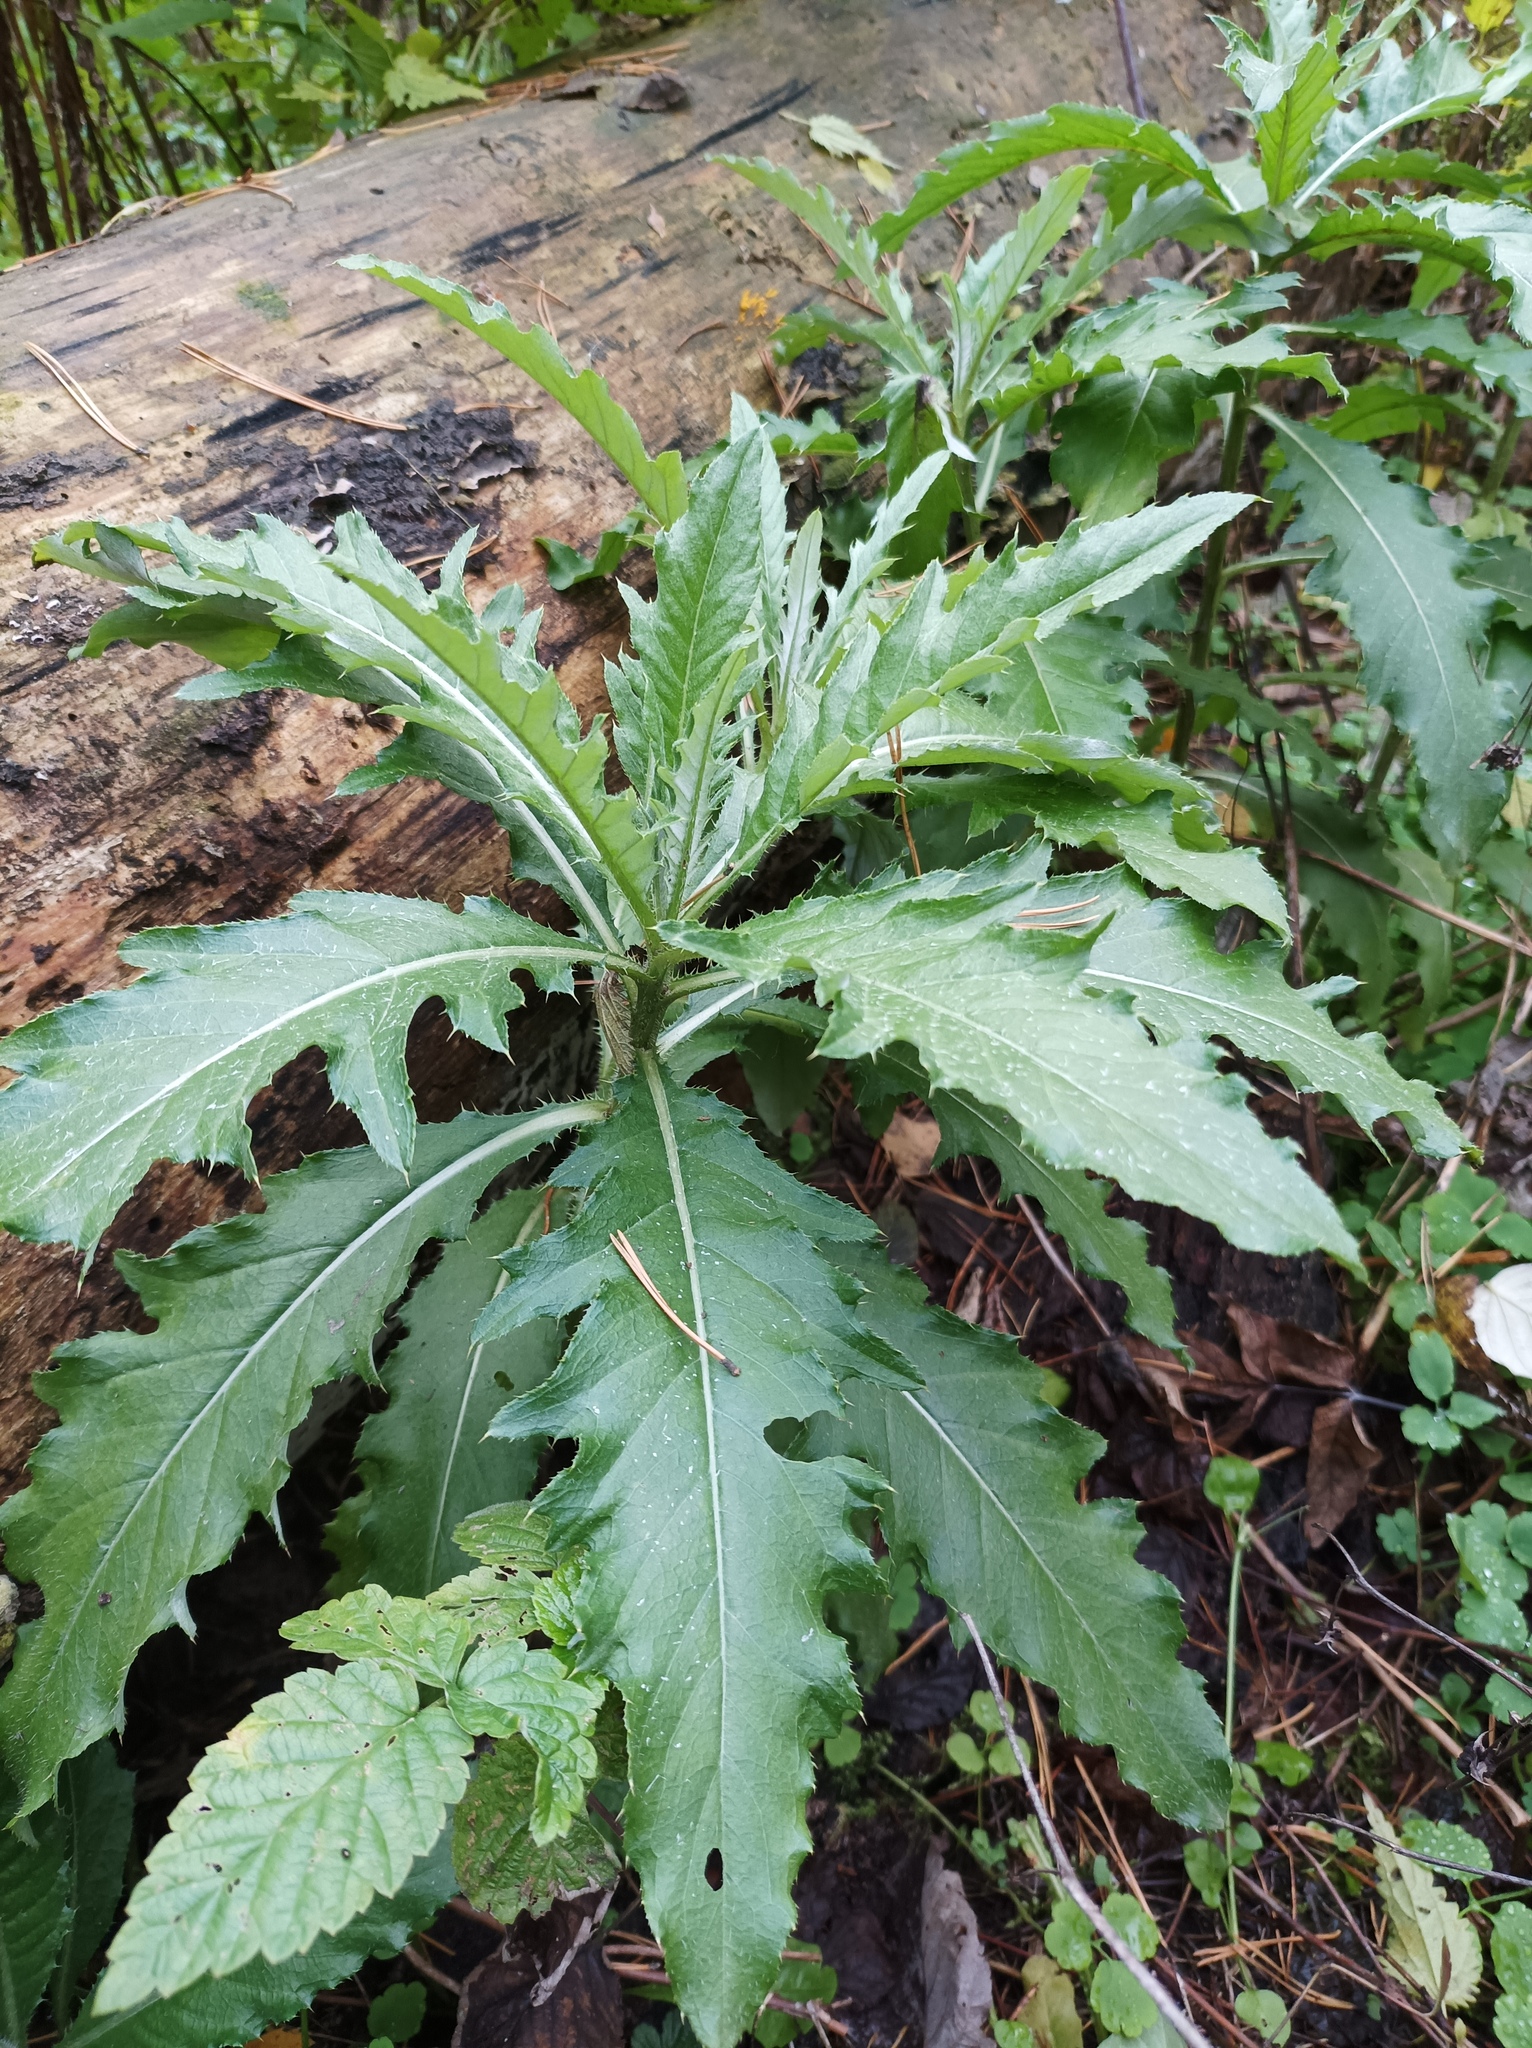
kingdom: Plantae
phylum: Tracheophyta
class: Magnoliopsida
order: Asterales
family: Asteraceae
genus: Cirsium
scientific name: Cirsium arvense
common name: Creeping thistle
